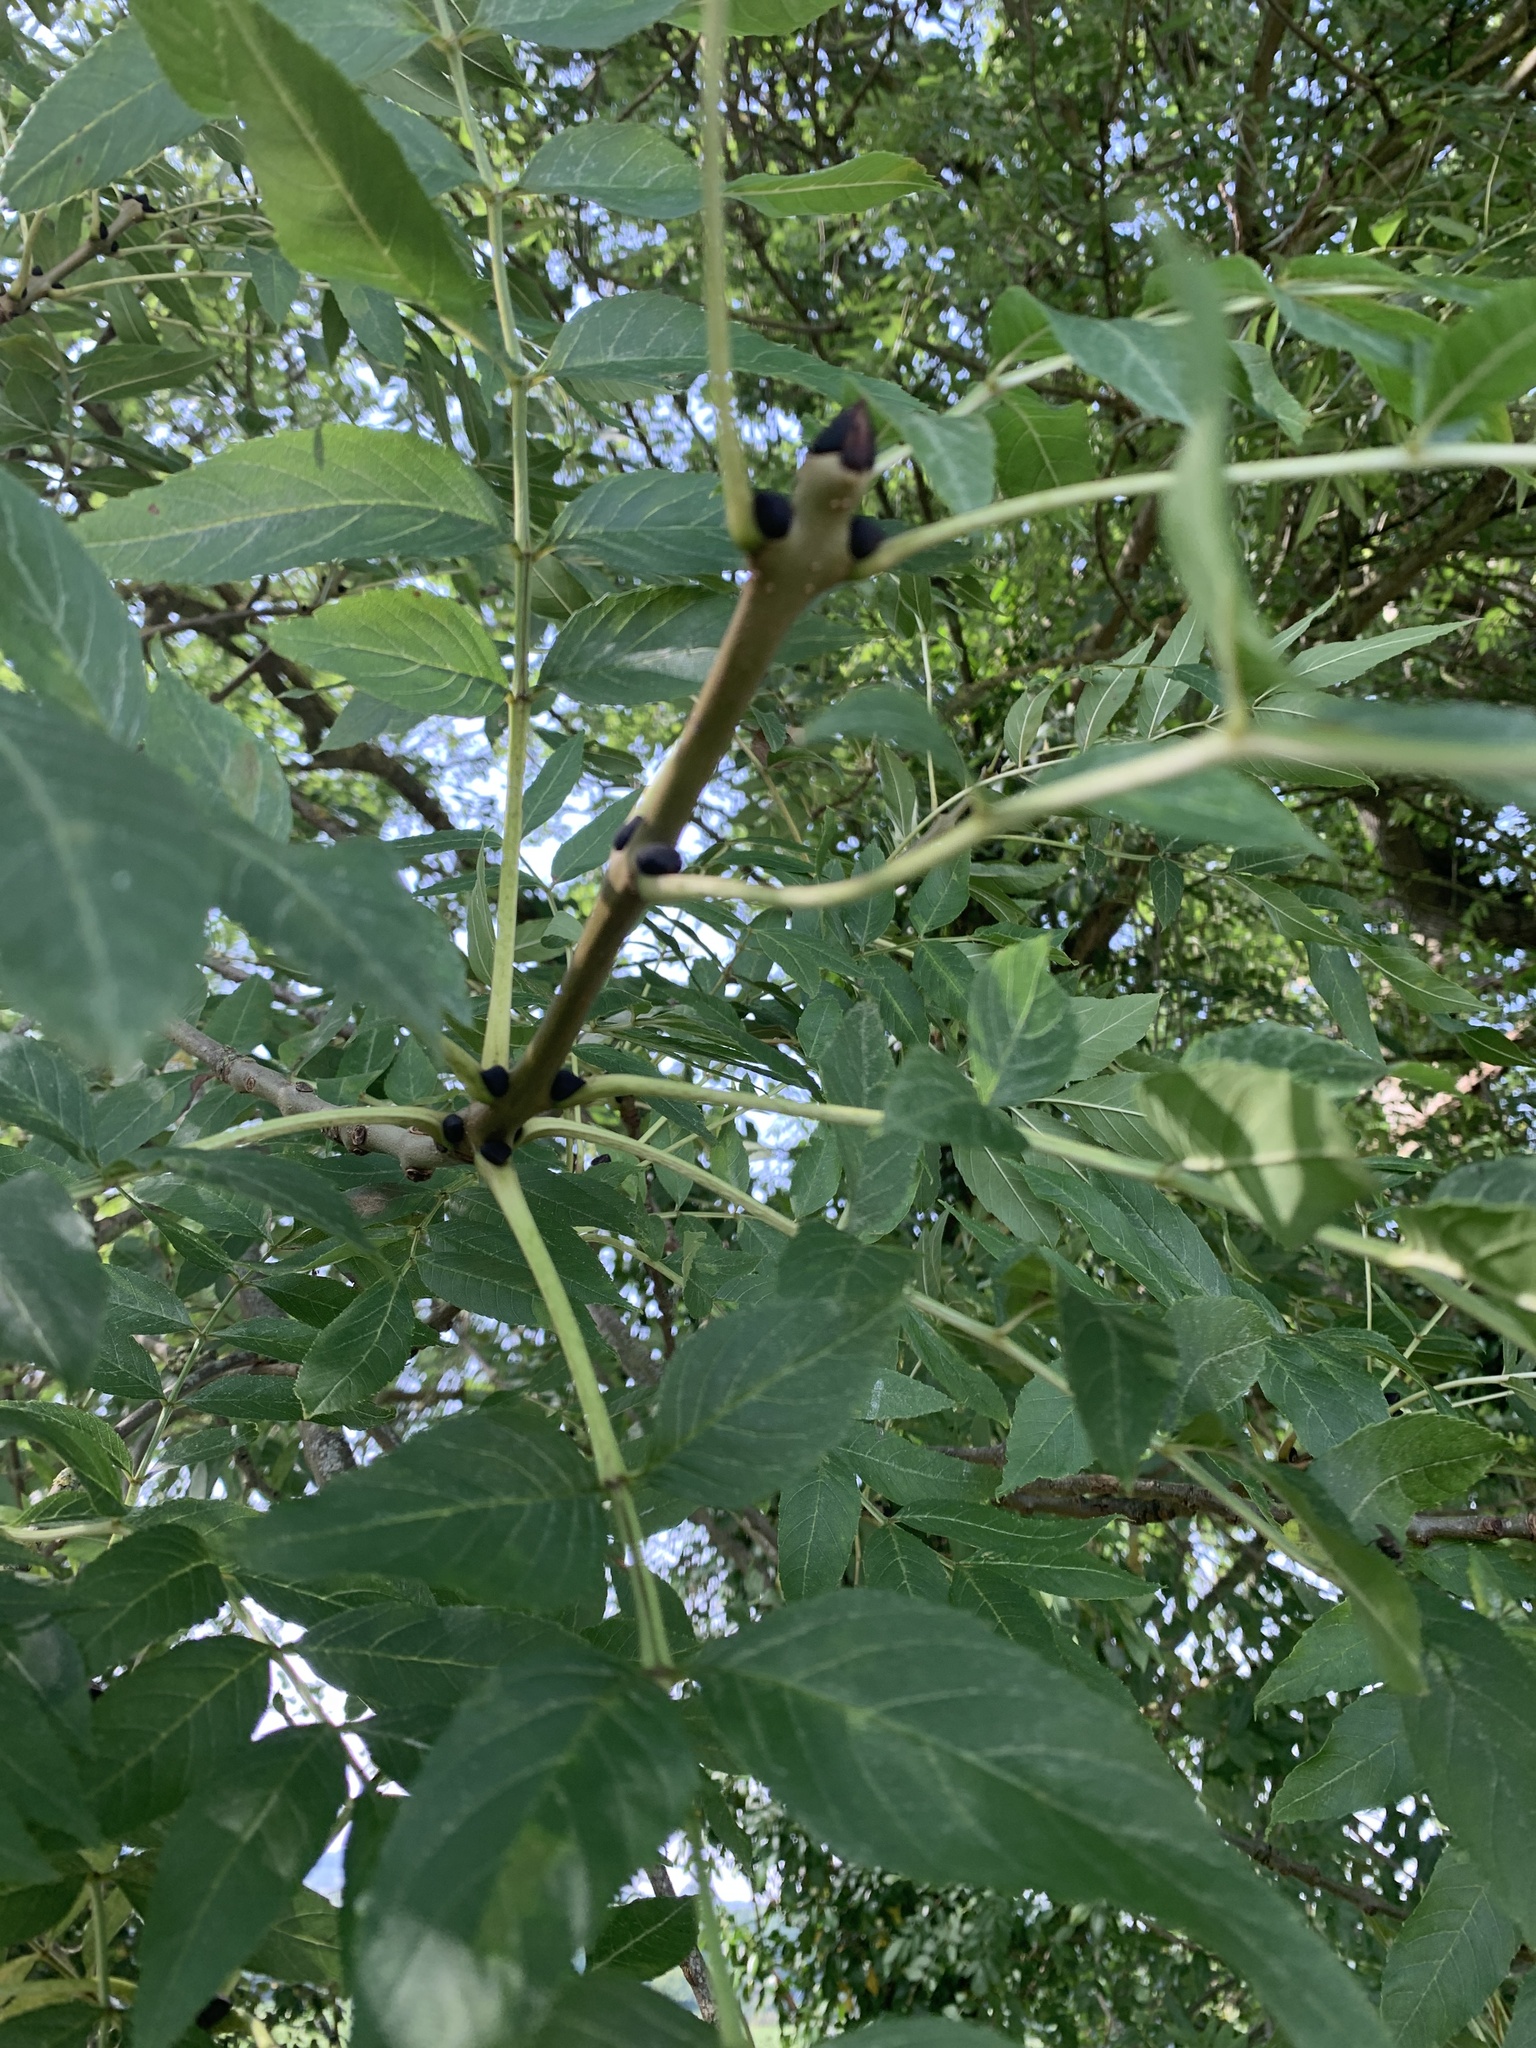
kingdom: Plantae
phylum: Tracheophyta
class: Magnoliopsida
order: Lamiales
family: Oleaceae
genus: Fraxinus
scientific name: Fraxinus excelsior
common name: European ash
